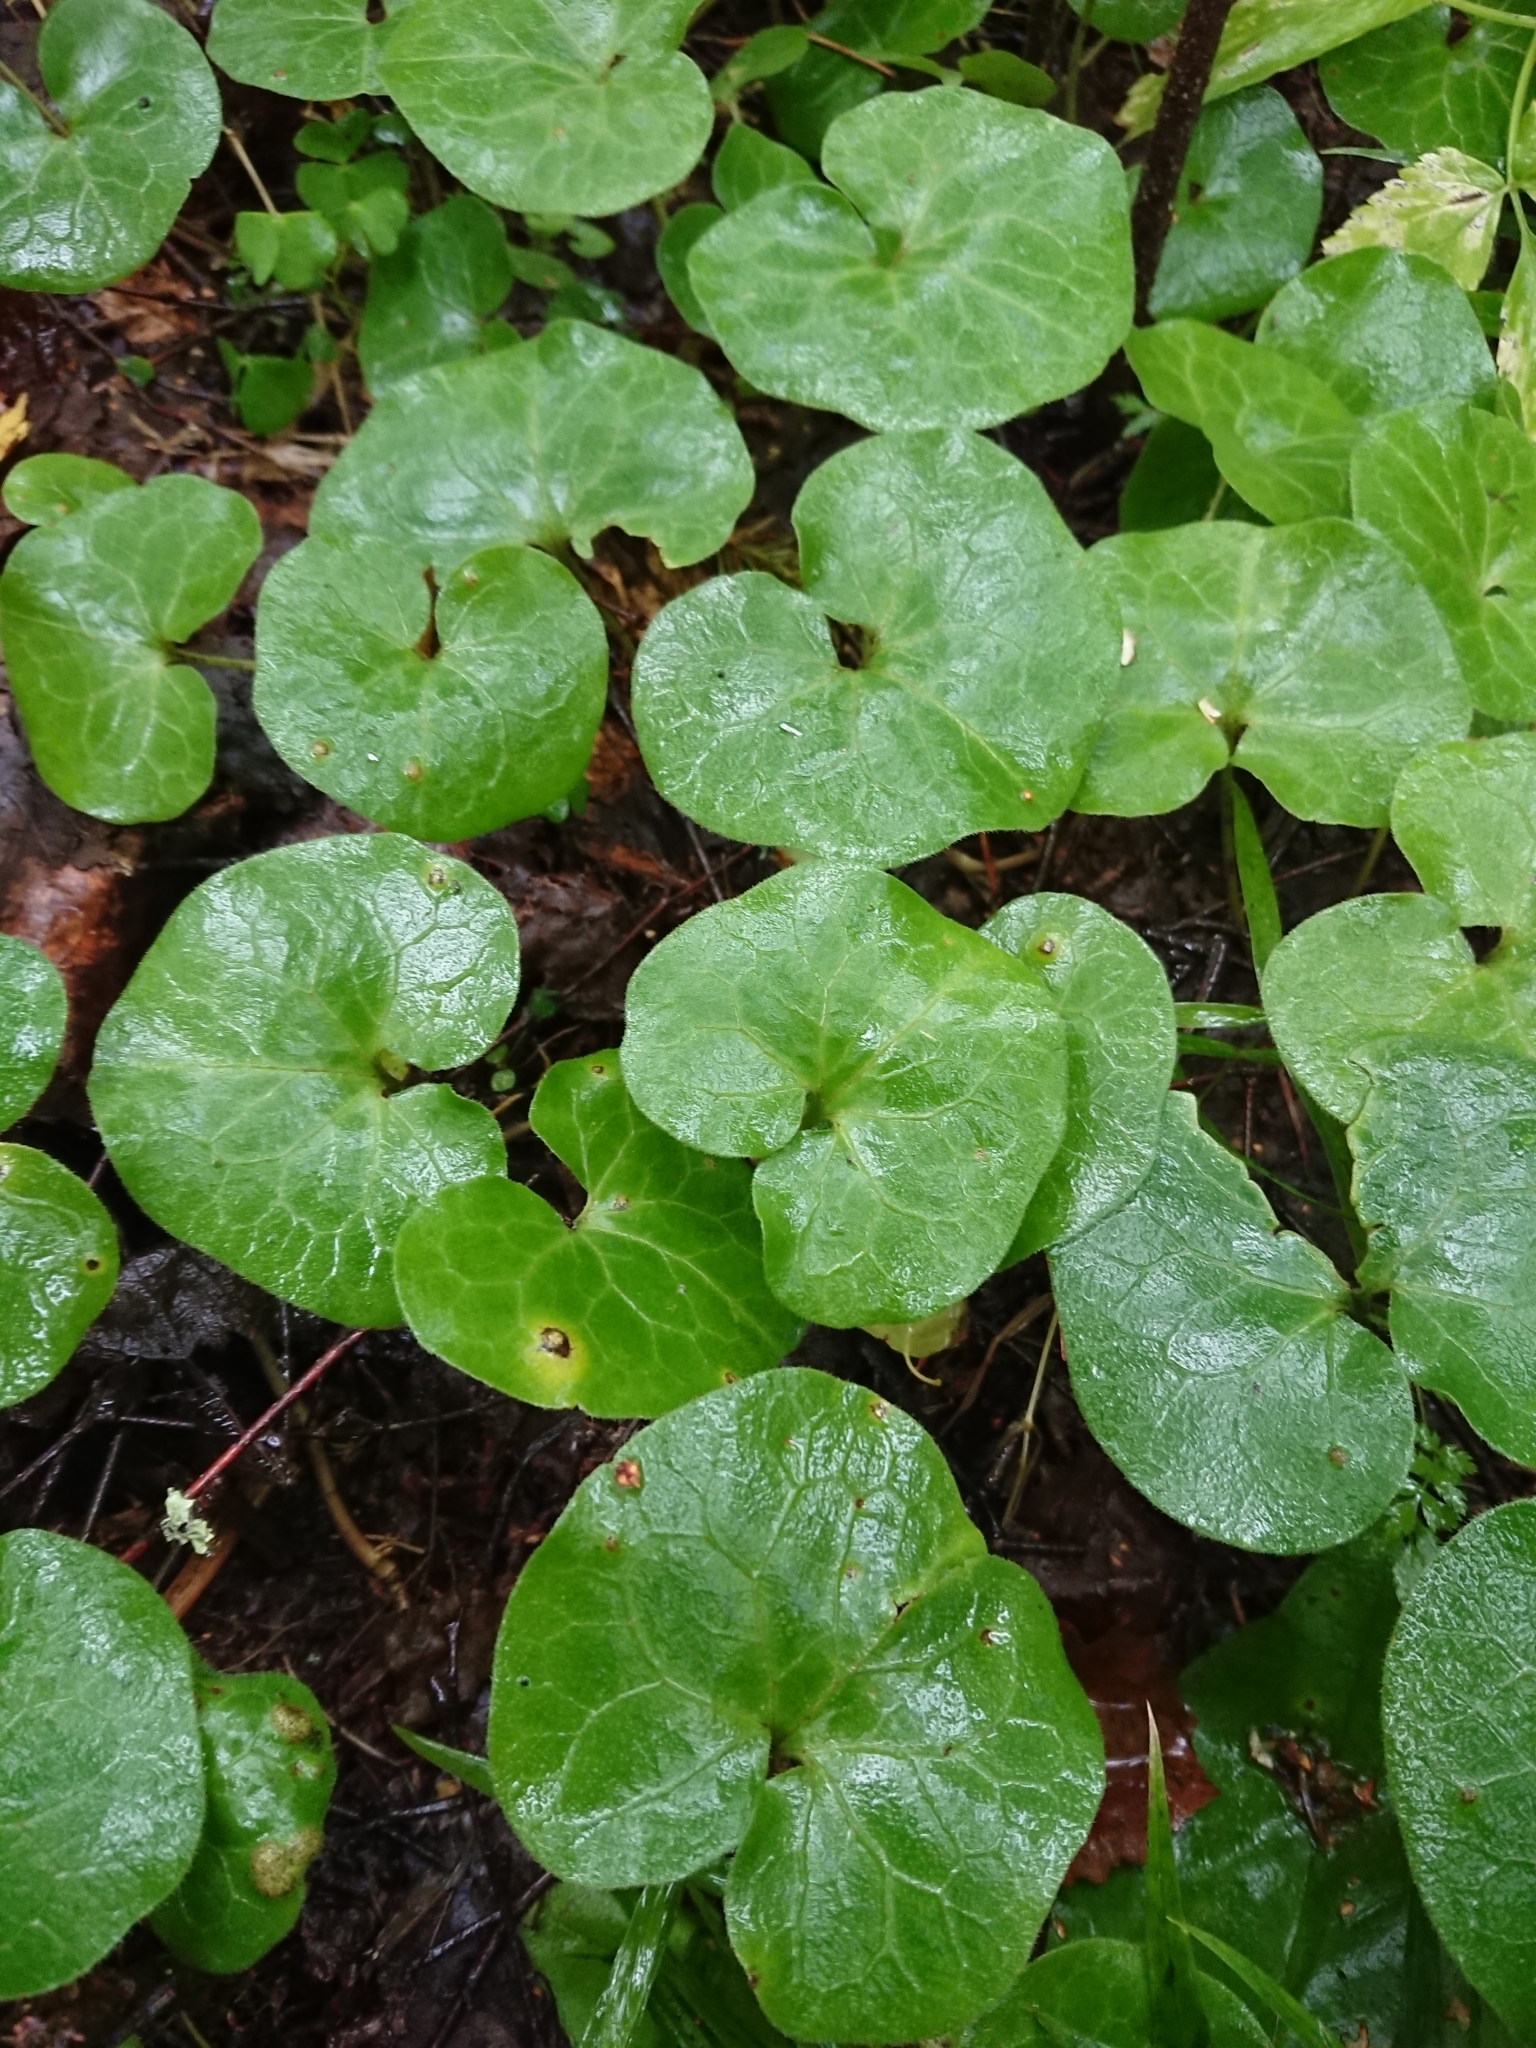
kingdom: Plantae
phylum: Tracheophyta
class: Magnoliopsida
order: Piperales
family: Aristolochiaceae
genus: Asarum
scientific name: Asarum europaeum
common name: Asarabacca
